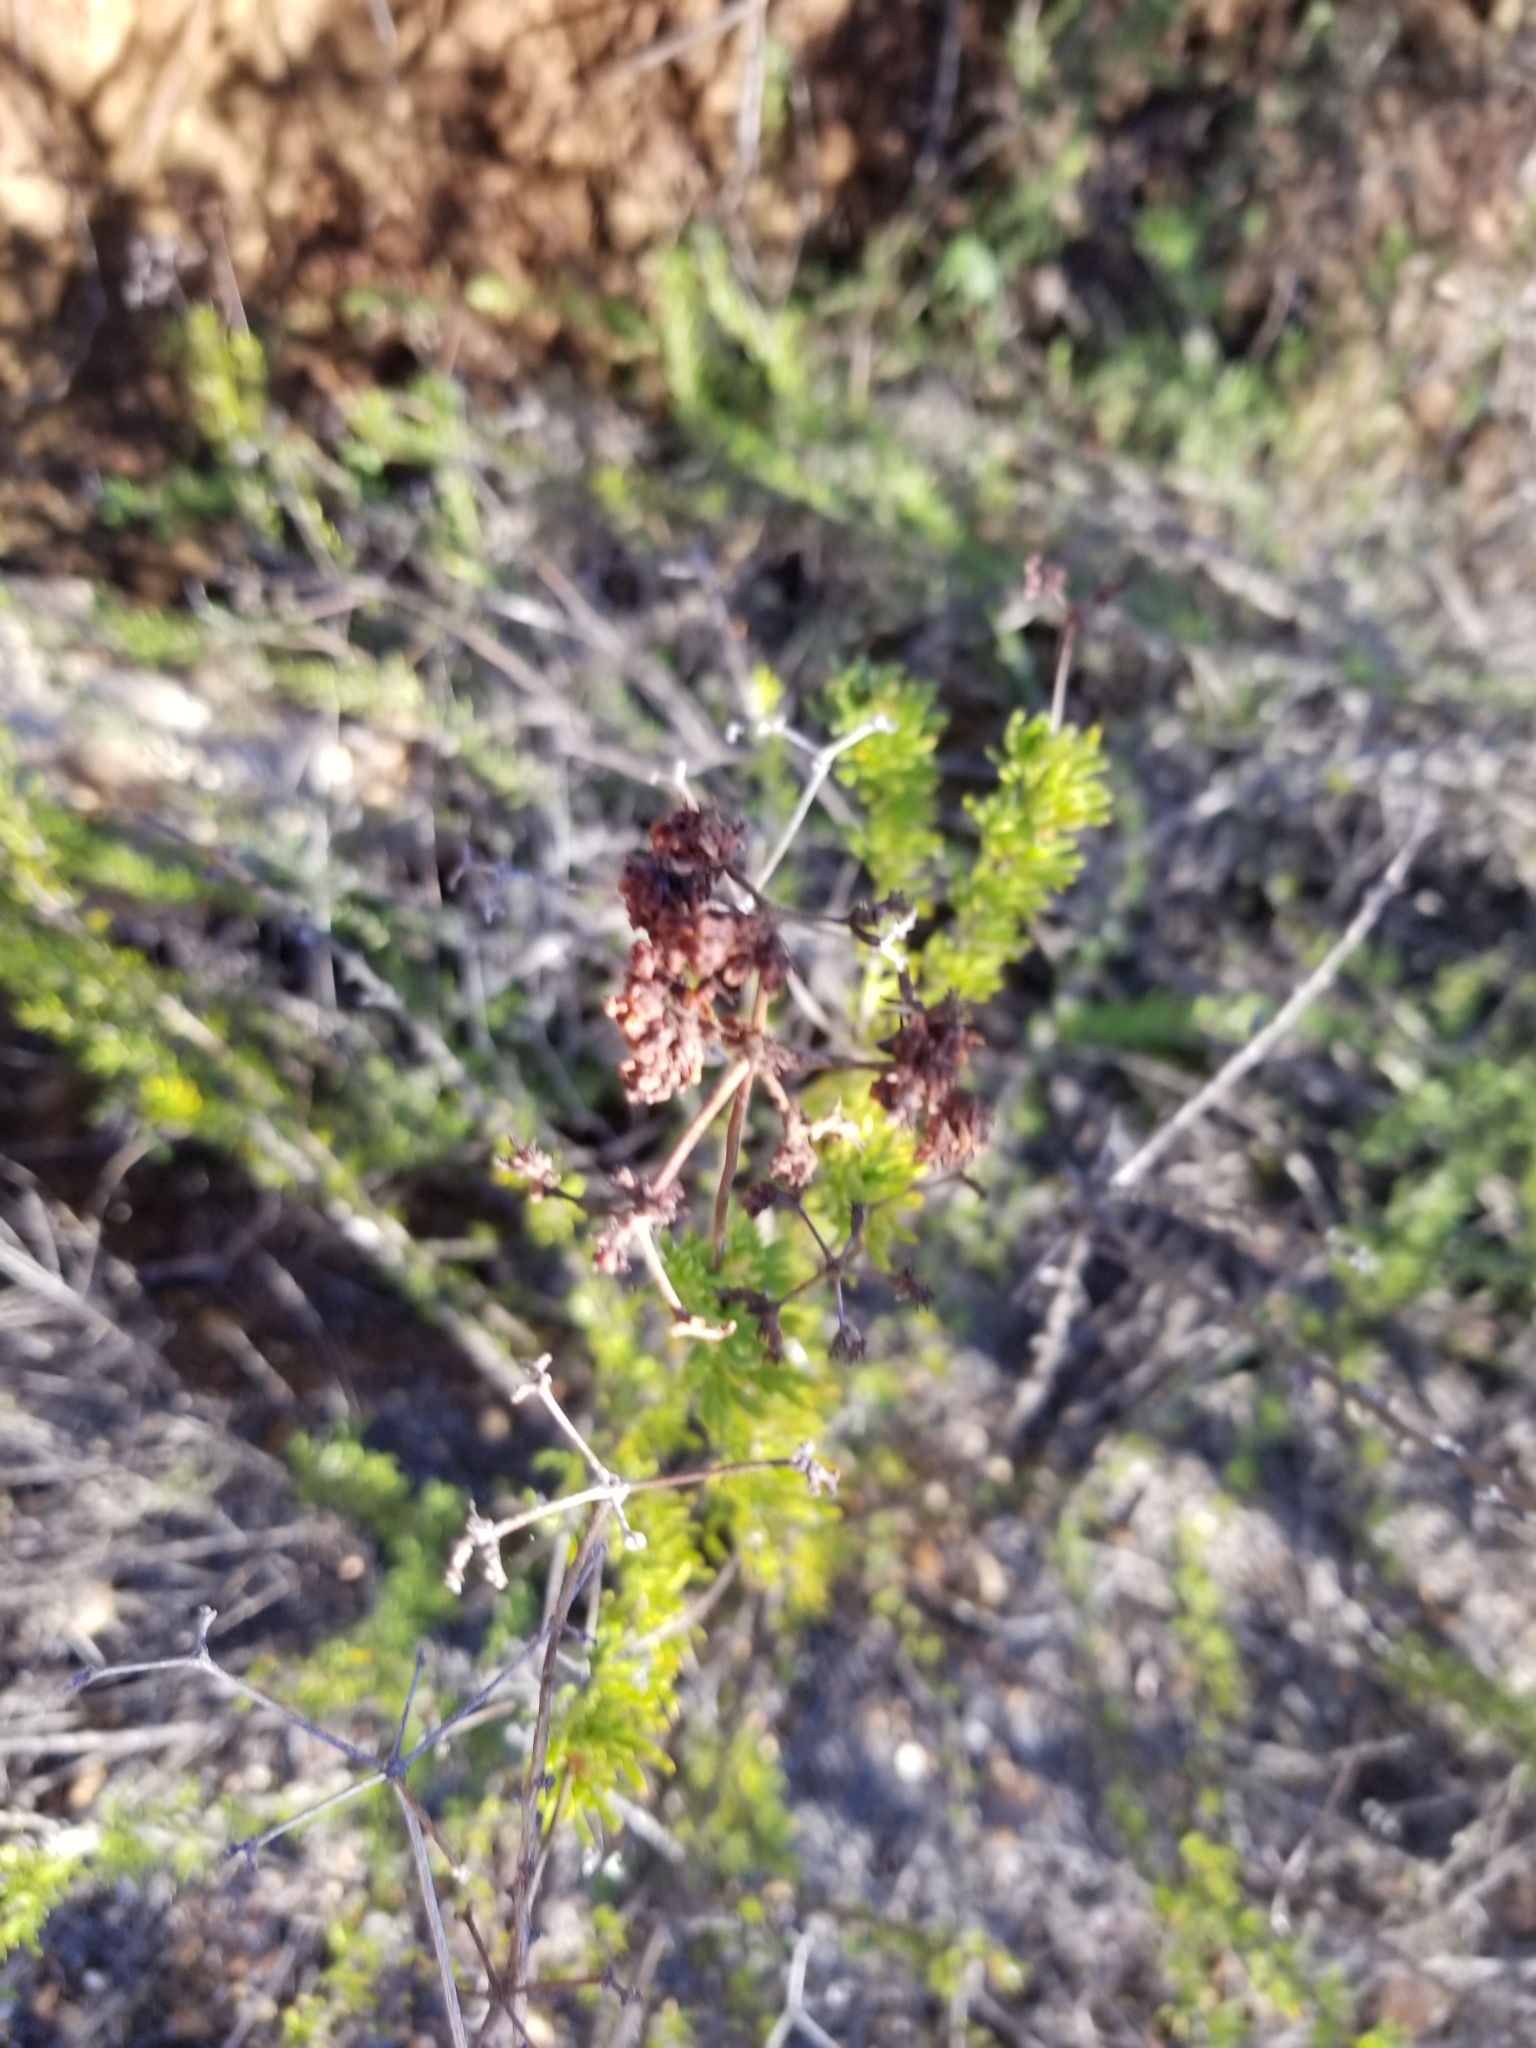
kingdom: Plantae
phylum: Tracheophyta
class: Magnoliopsida
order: Caryophyllales
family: Polygonaceae
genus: Eriogonum
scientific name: Eriogonum fasciculatum
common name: California wild buckwheat
